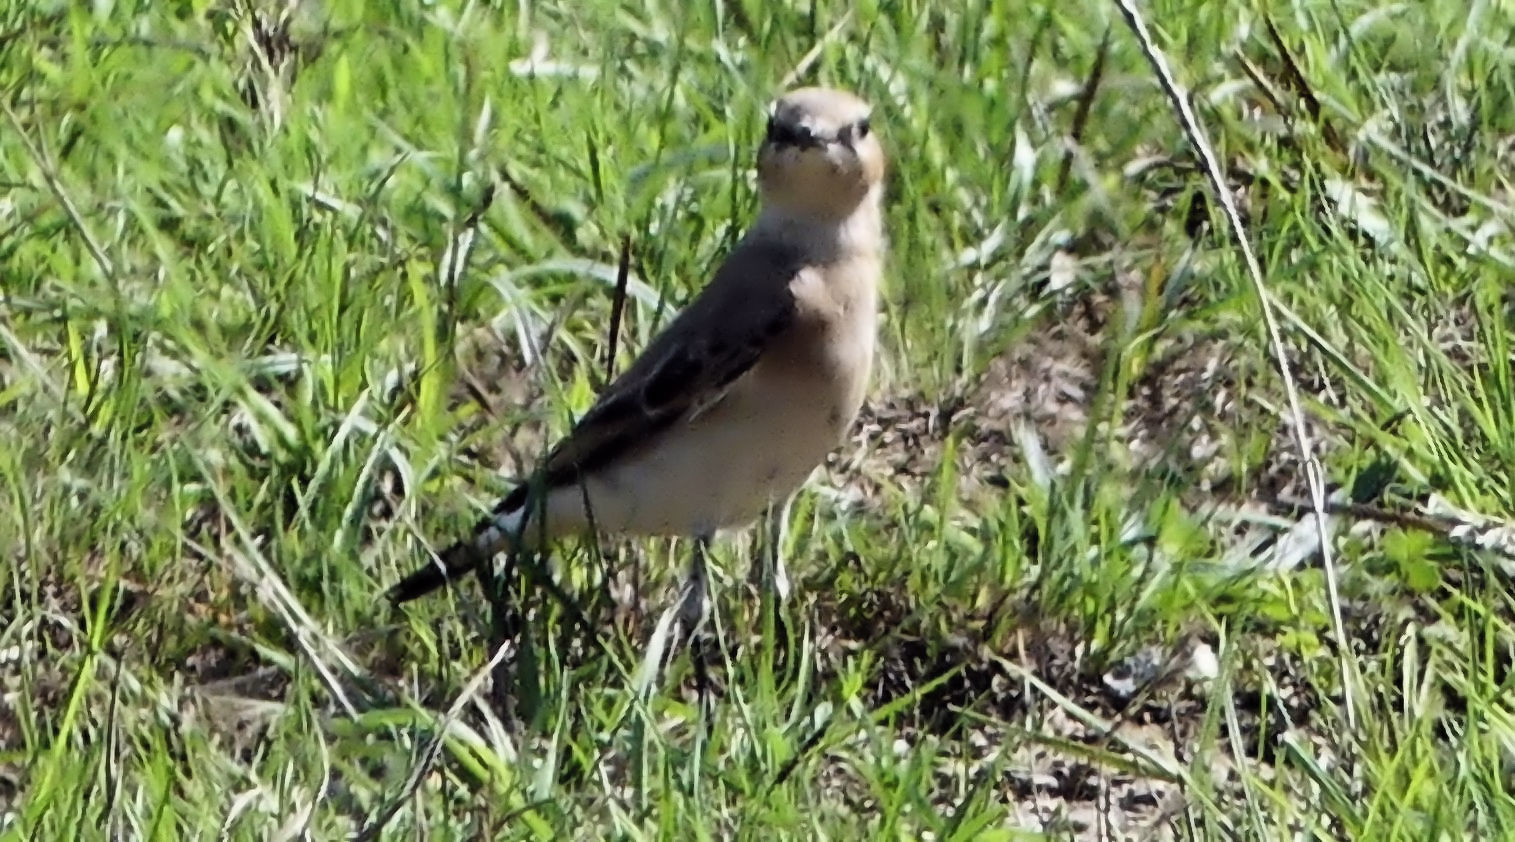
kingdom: Animalia
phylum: Chordata
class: Aves
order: Passeriformes
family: Muscicapidae
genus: Oenanthe
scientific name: Oenanthe oenanthe
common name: Northern wheatear
